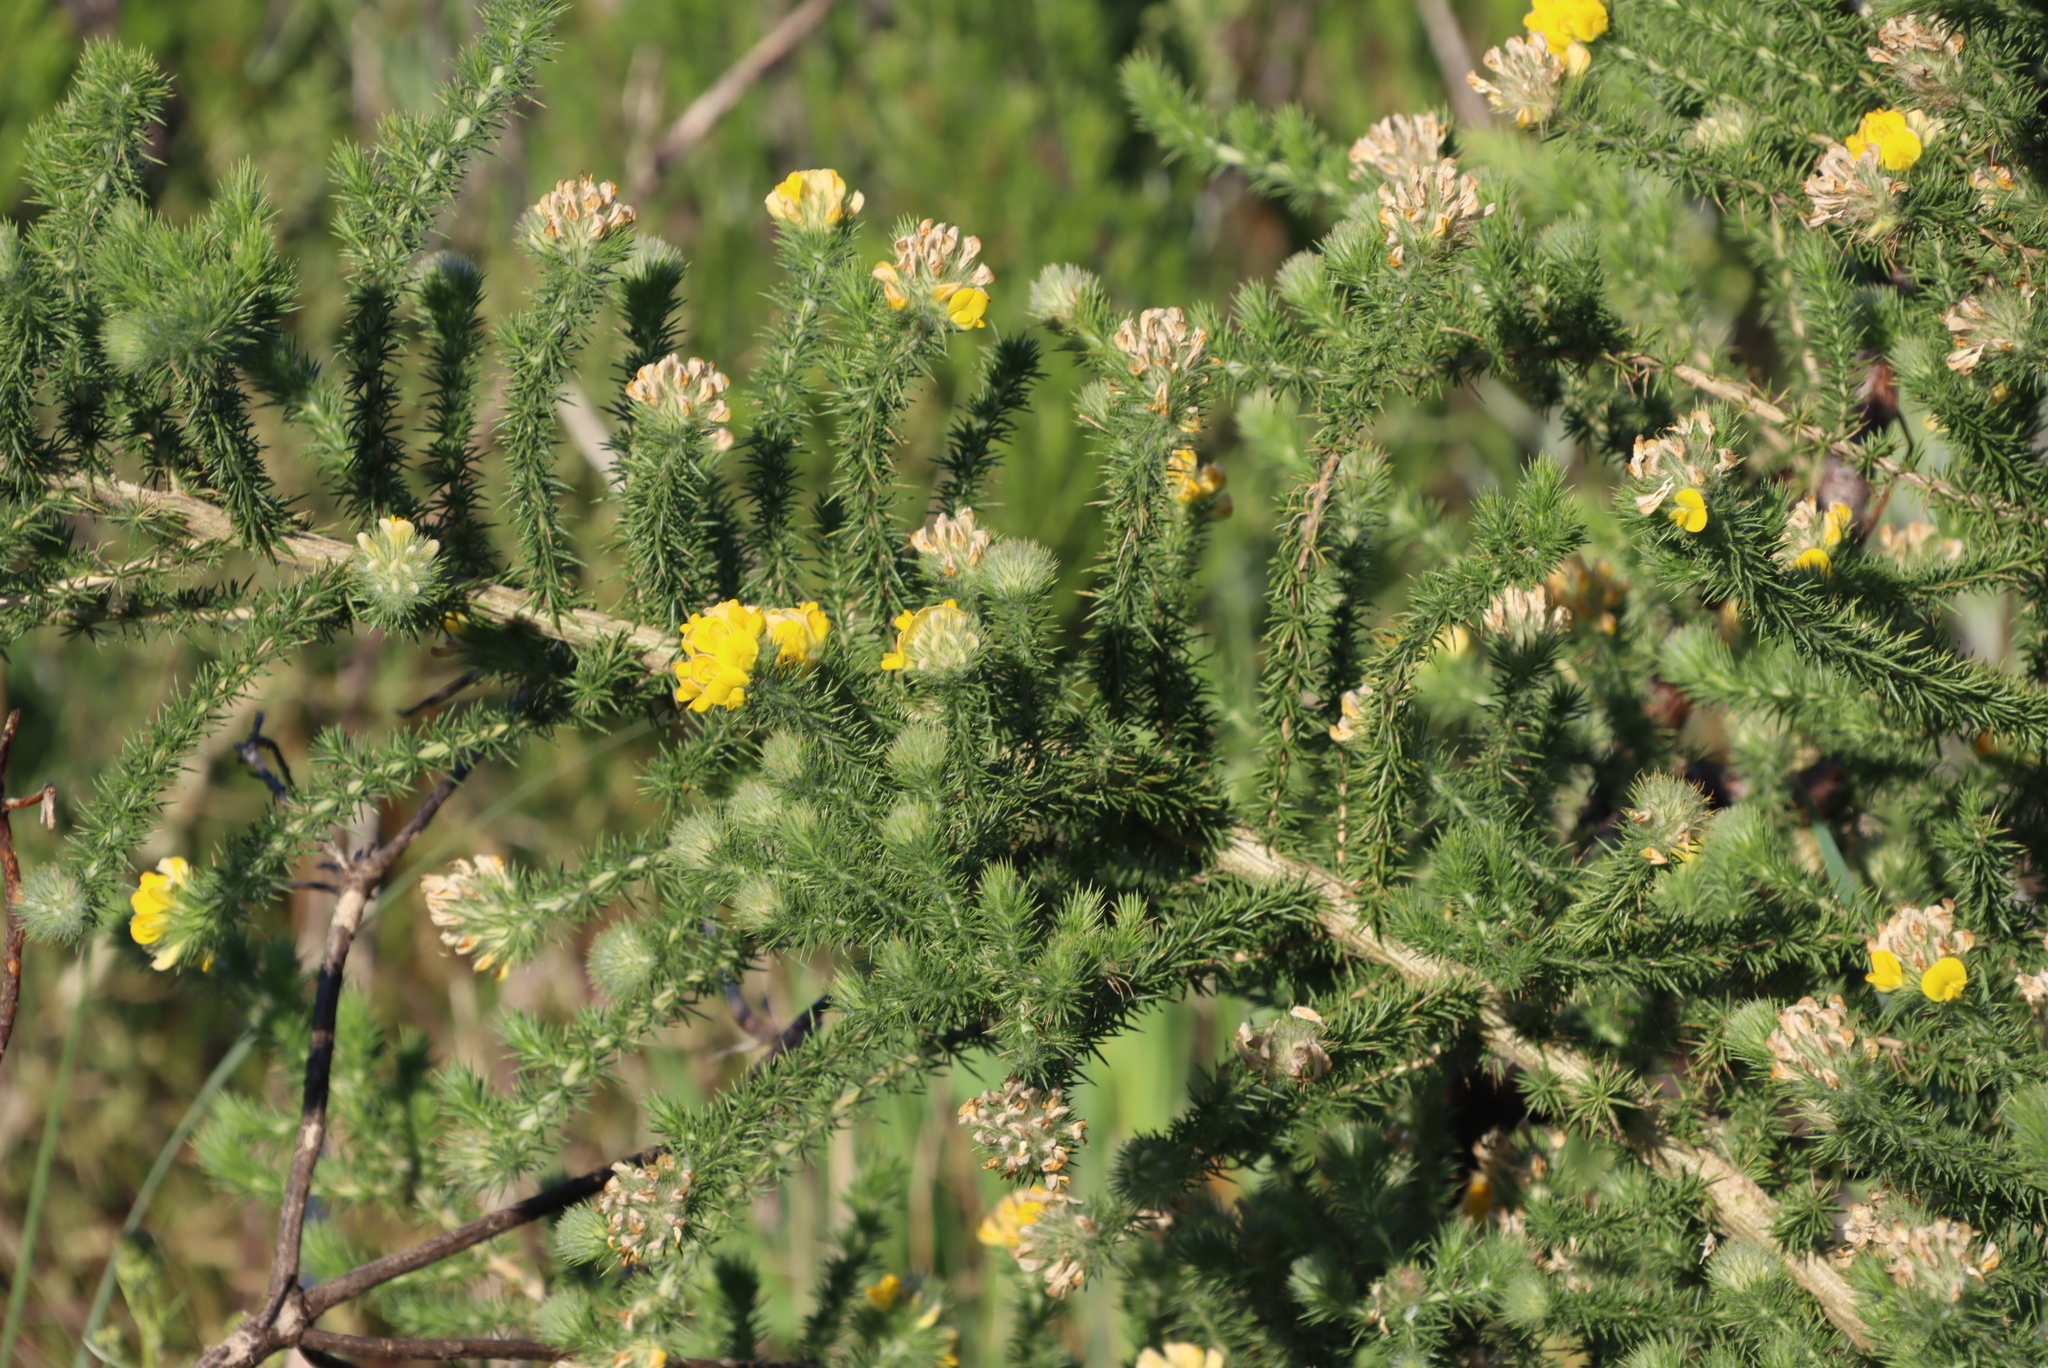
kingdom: Plantae
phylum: Tracheophyta
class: Magnoliopsida
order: Fabales
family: Fabaceae
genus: Aspalathus
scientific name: Aspalathus chenopoda
